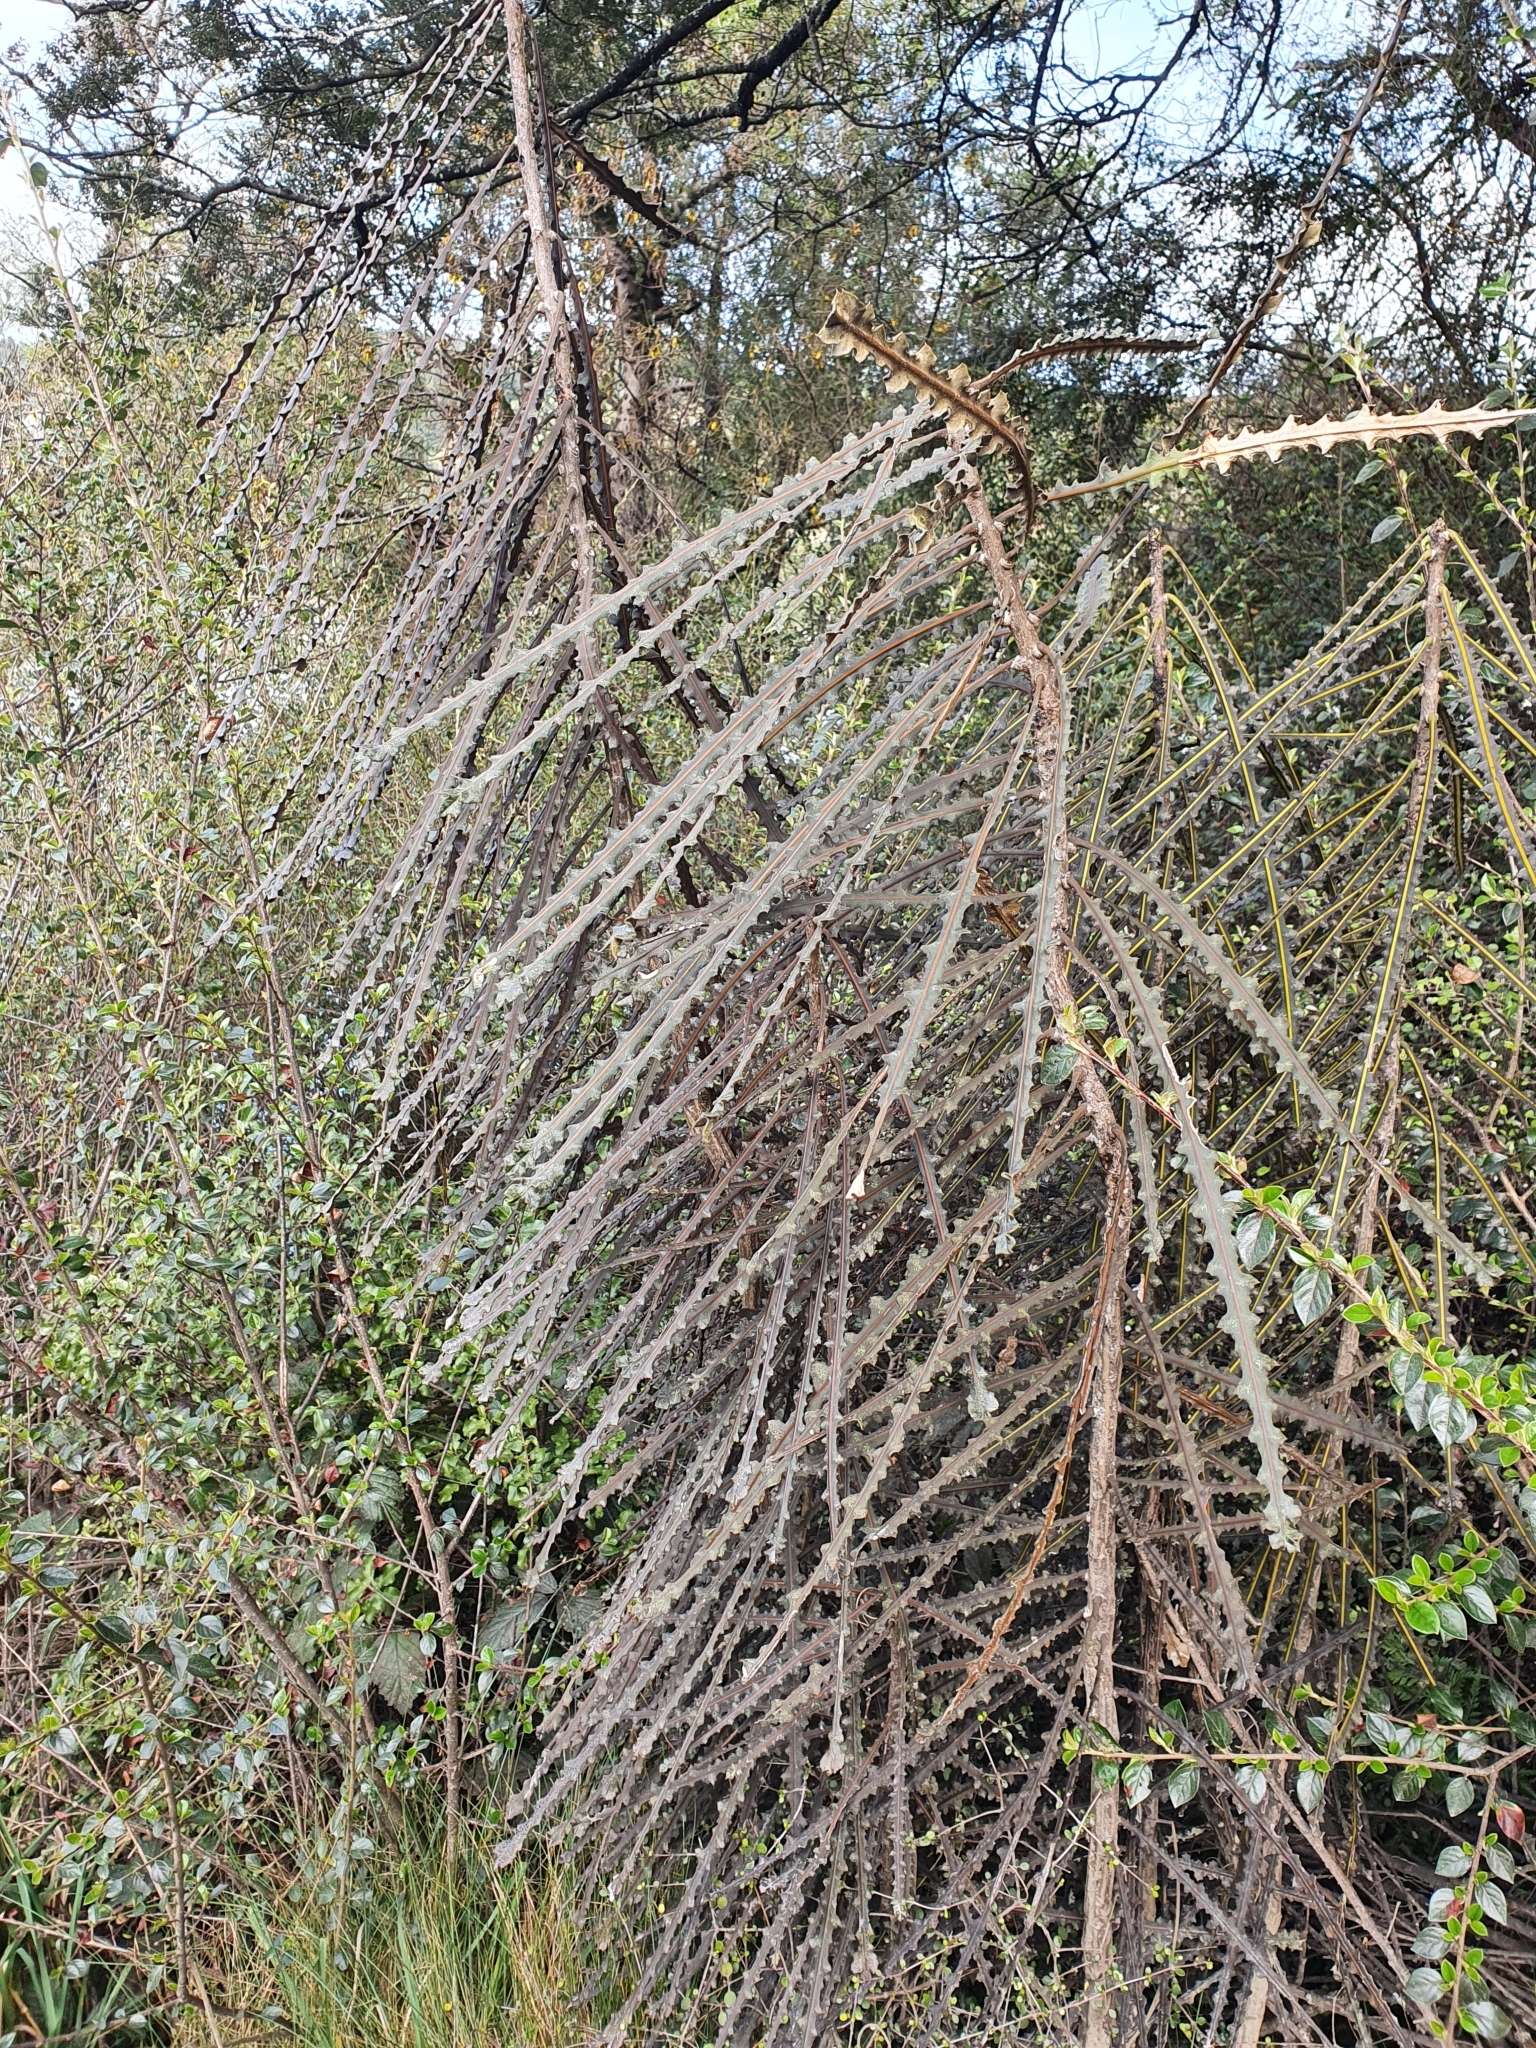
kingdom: Plantae
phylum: Tracheophyta
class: Magnoliopsida
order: Apiales
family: Araliaceae
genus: Pseudopanax
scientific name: Pseudopanax ferox
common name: Fierce lancewood
